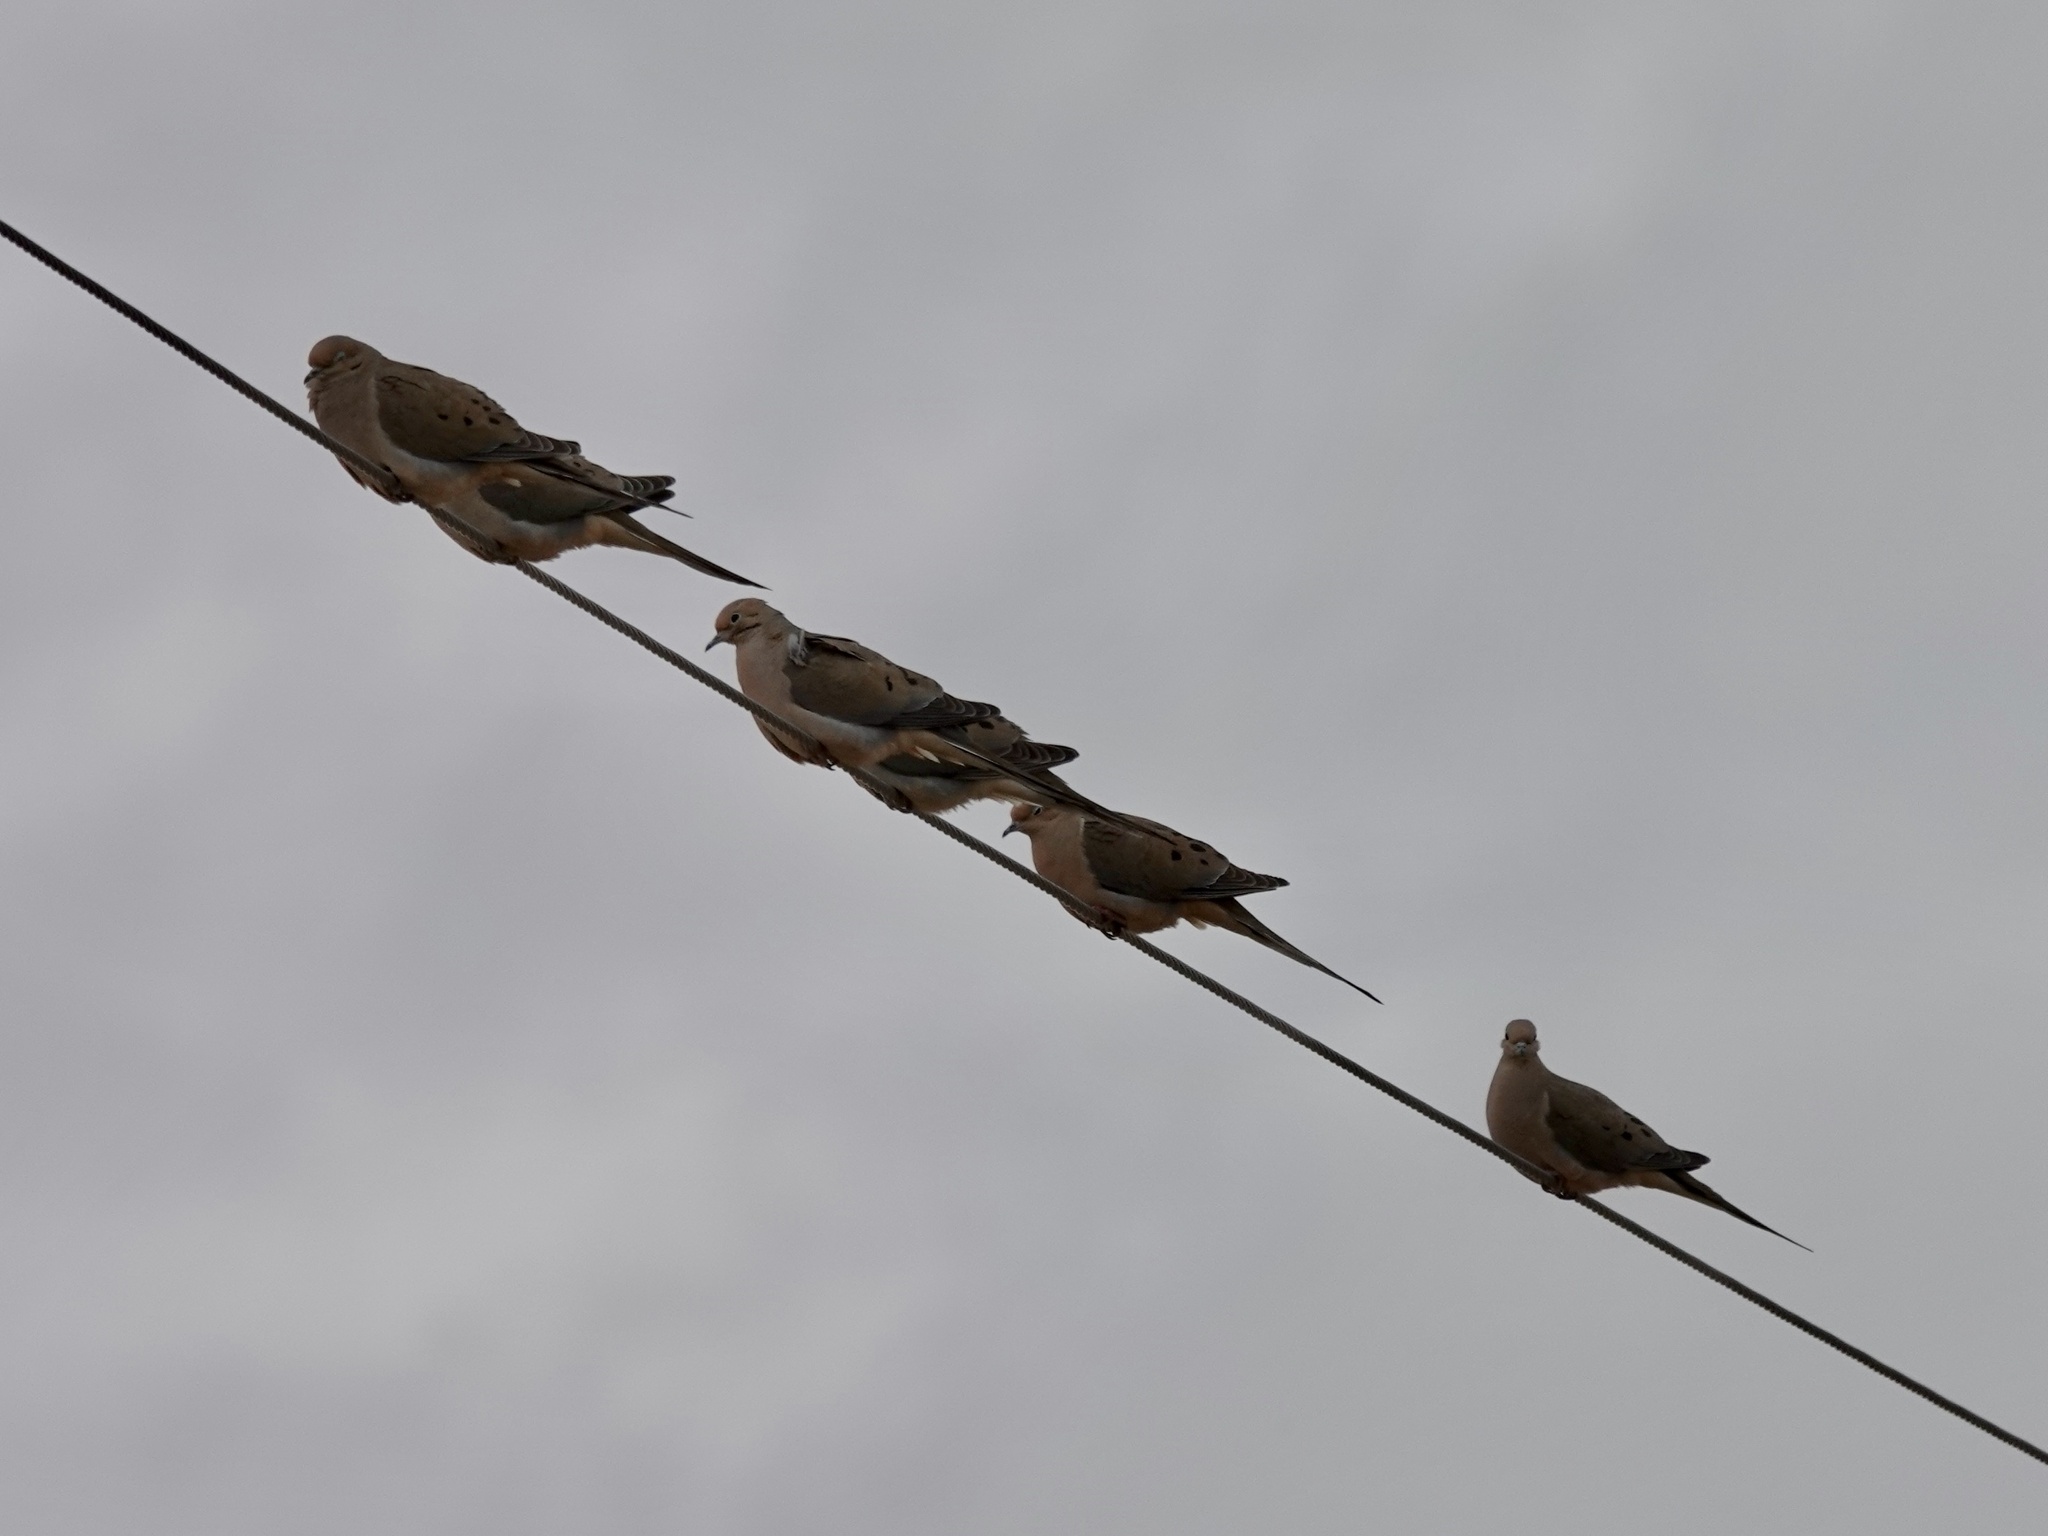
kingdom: Animalia
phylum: Chordata
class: Aves
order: Columbiformes
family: Columbidae
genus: Zenaida
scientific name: Zenaida macroura
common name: Mourning dove
